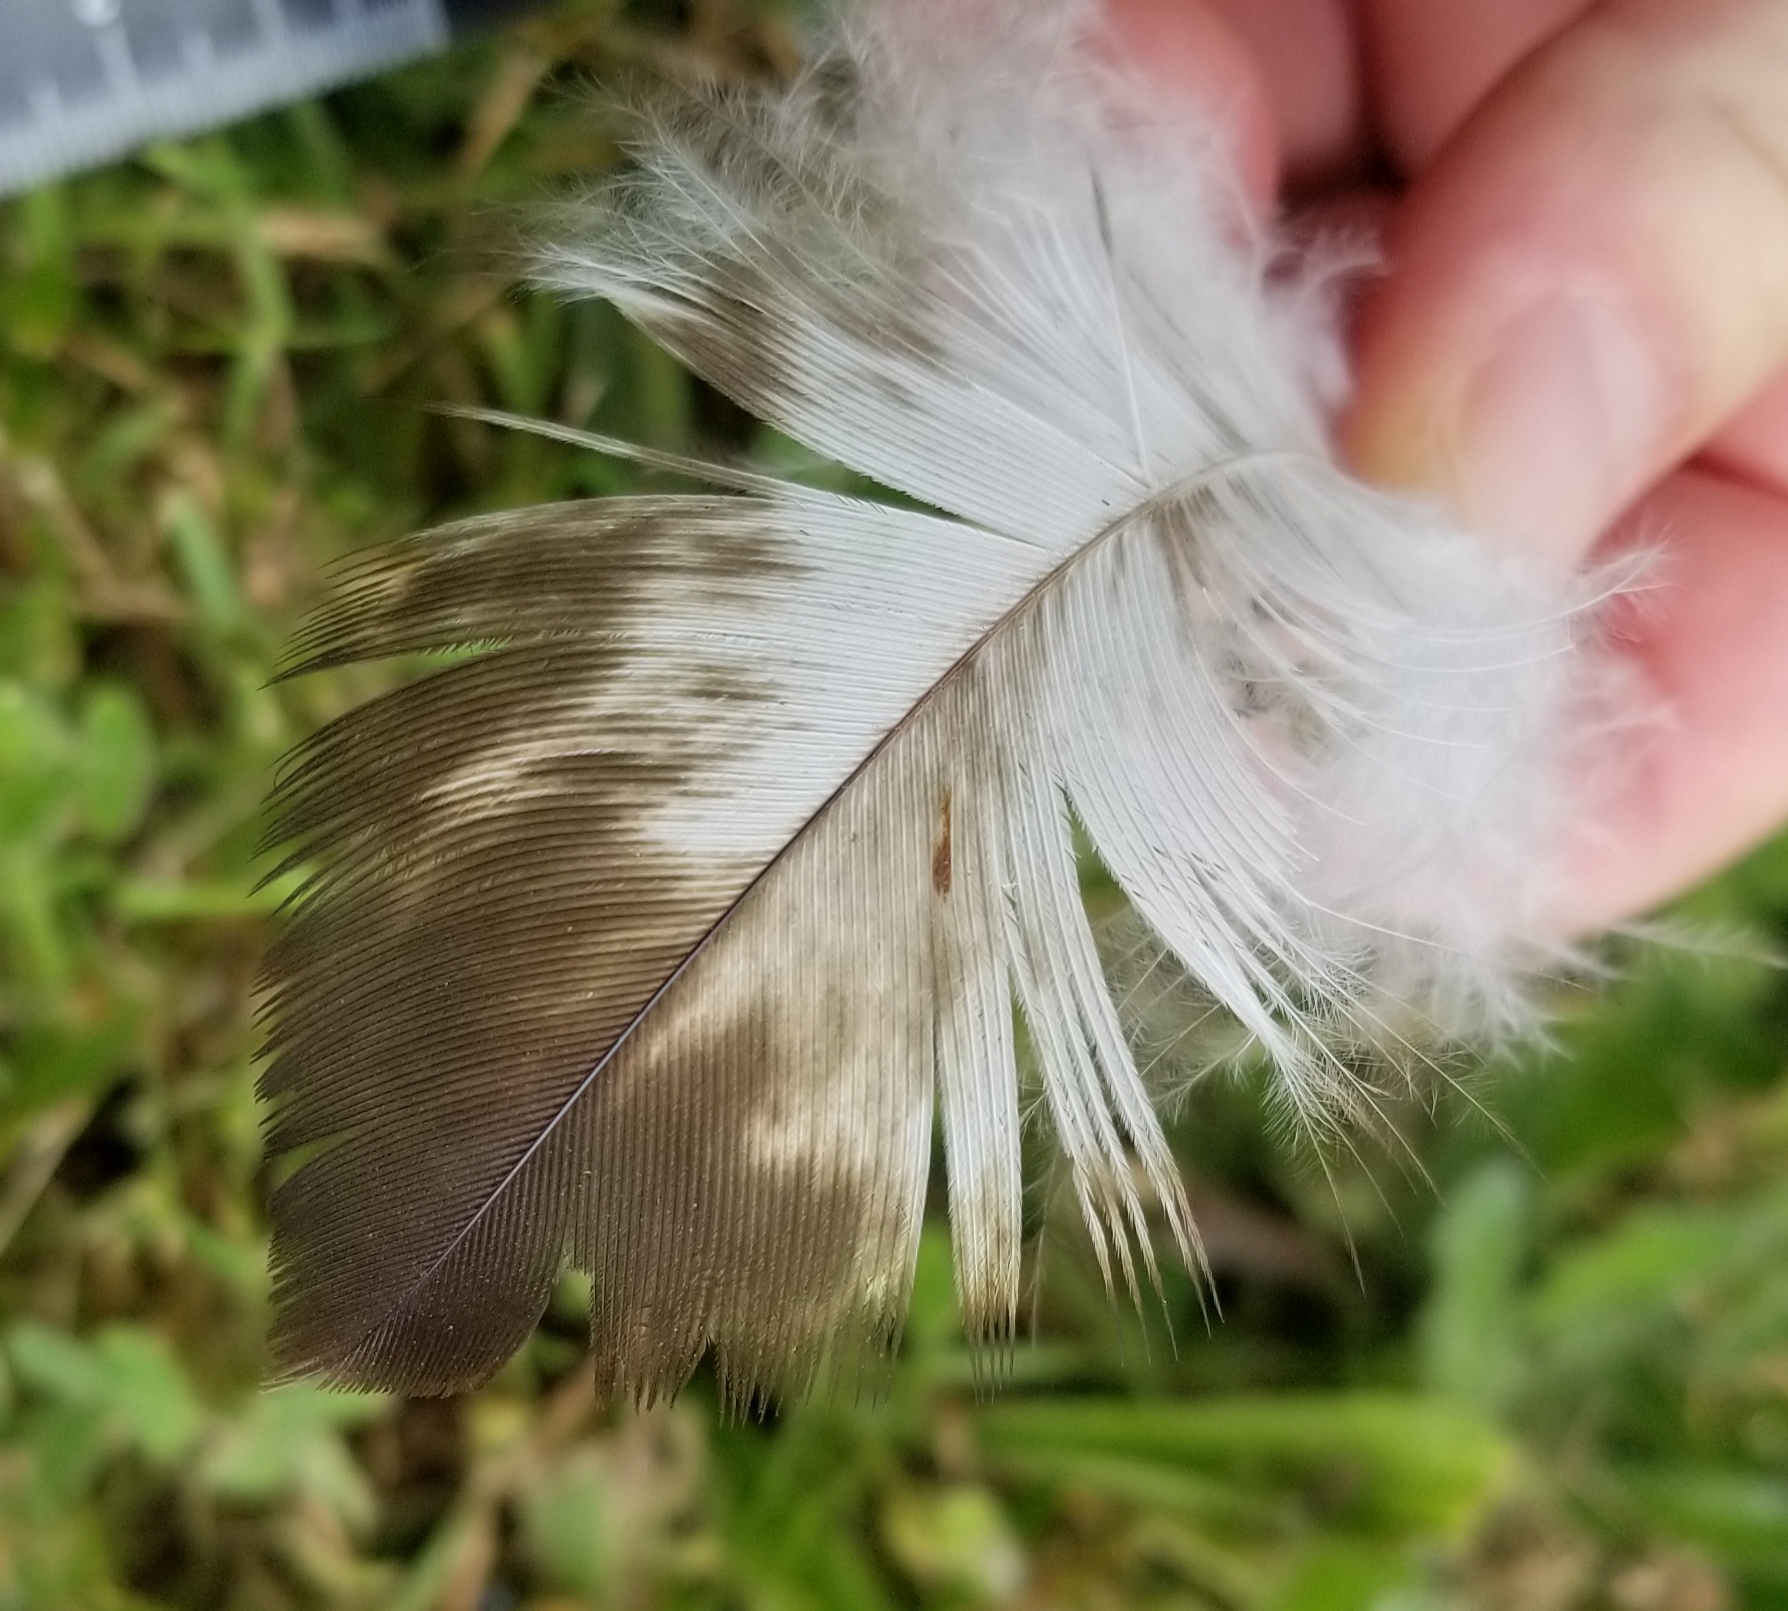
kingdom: Animalia
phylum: Chordata
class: Aves
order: Accipitriformes
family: Accipitridae
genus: Haliaeetus
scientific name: Haliaeetus leucocephalus
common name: Bald eagle
